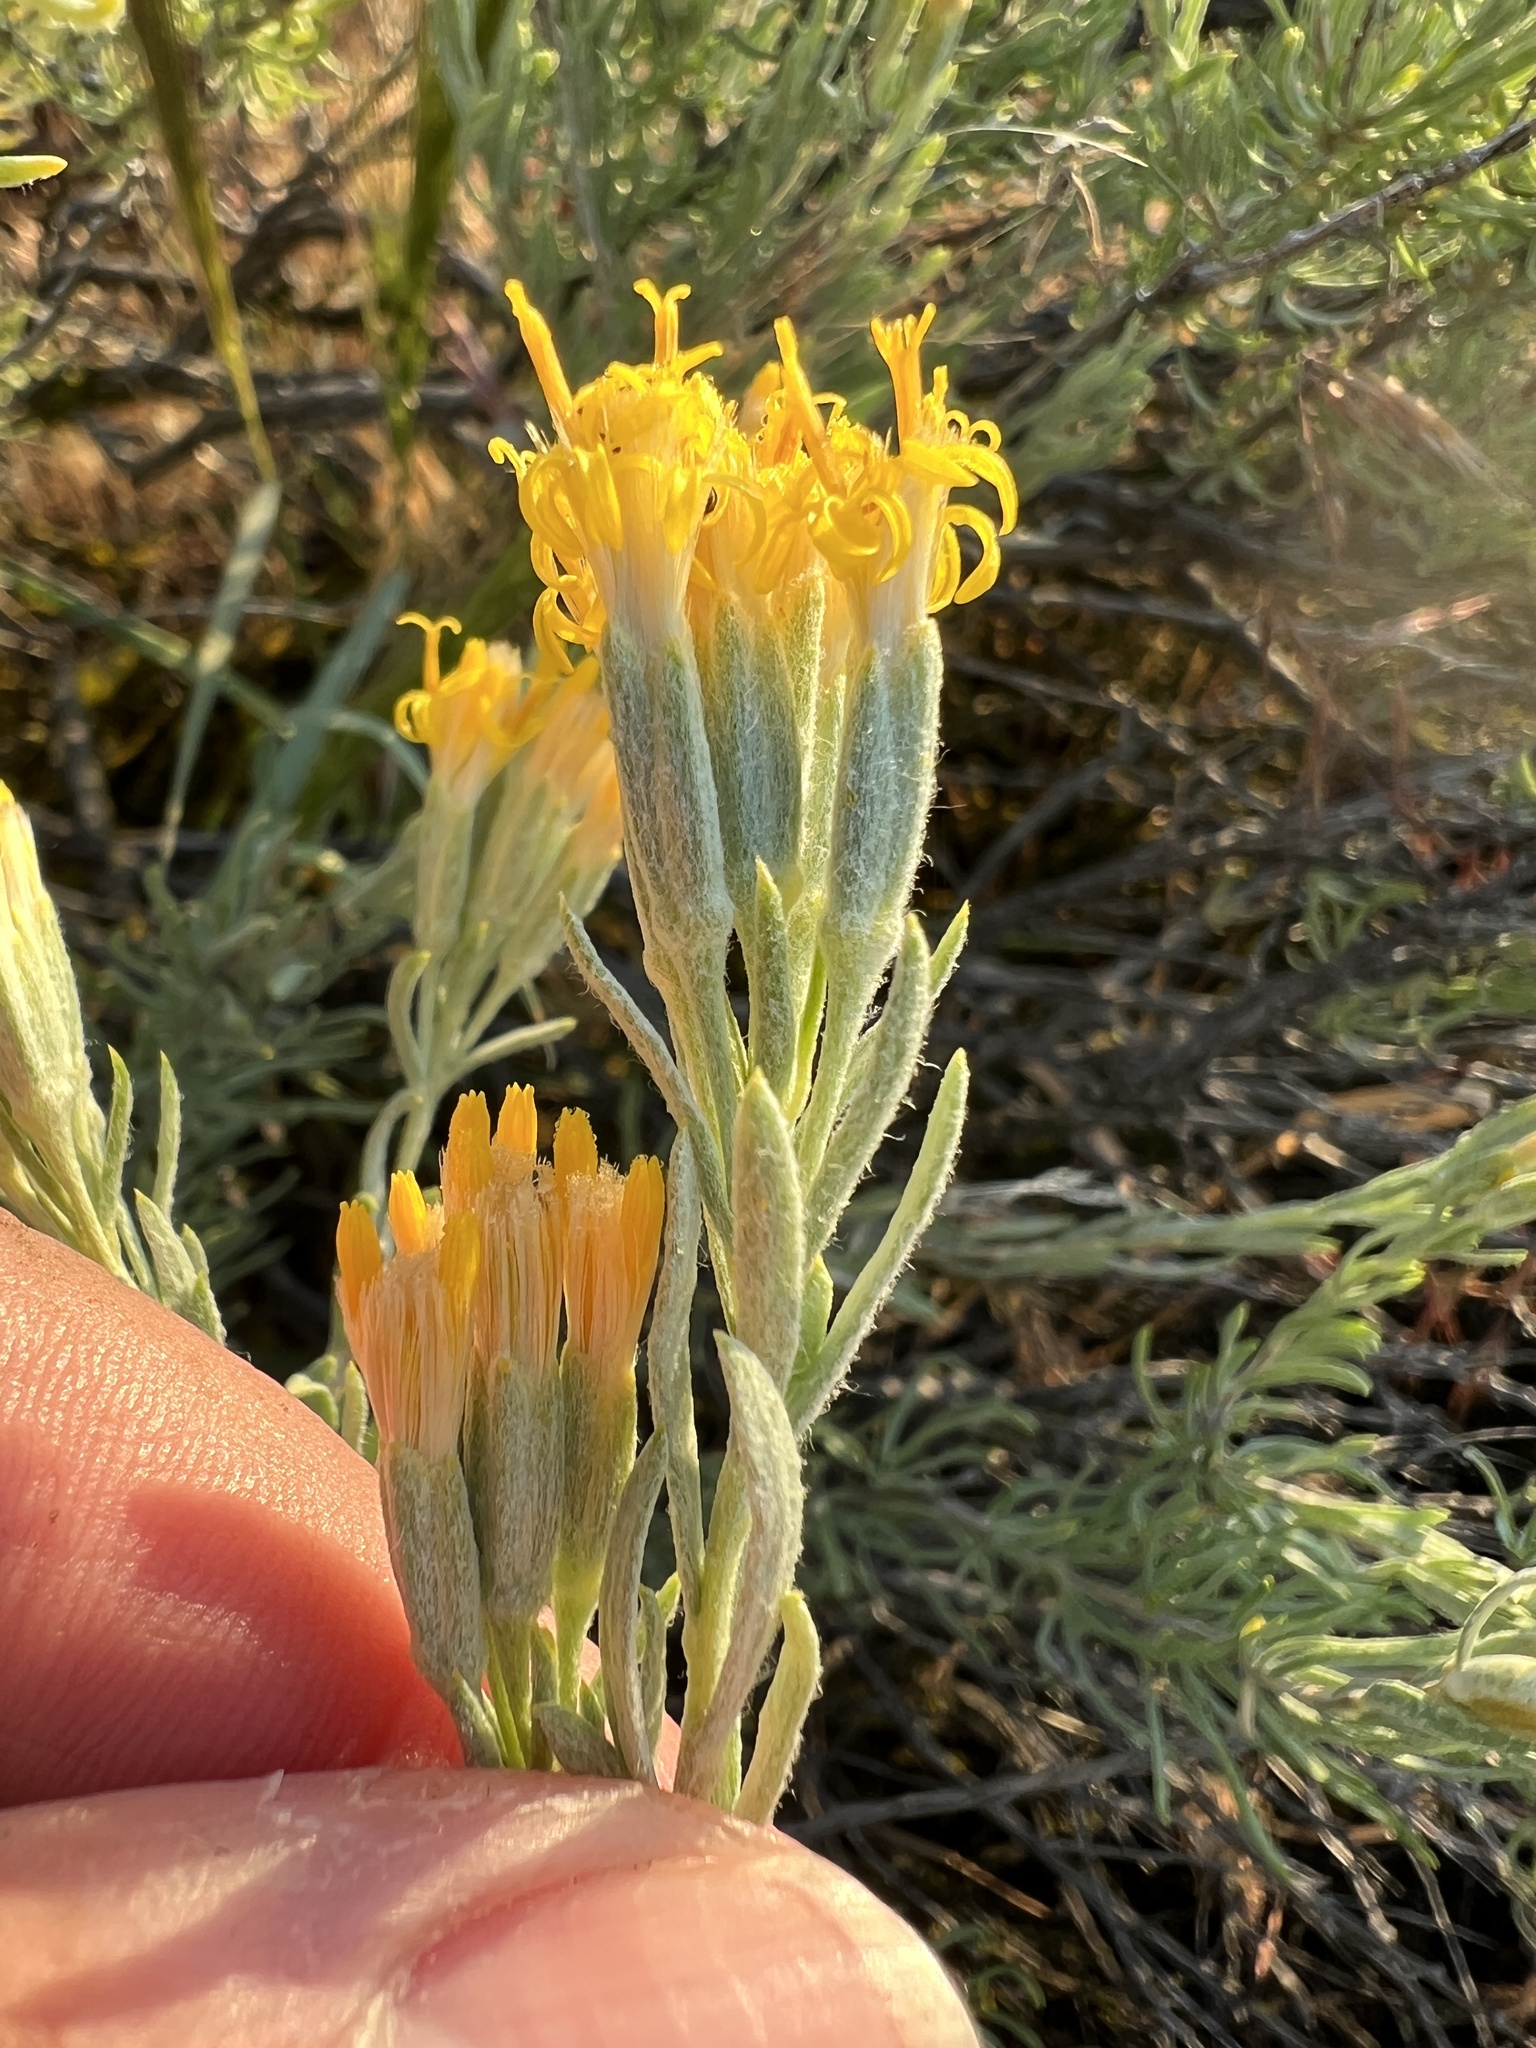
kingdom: Plantae
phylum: Tracheophyta
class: Magnoliopsida
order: Asterales
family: Asteraceae
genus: Tetradymia
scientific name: Tetradymia canescens
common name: Spineless horsebrush
